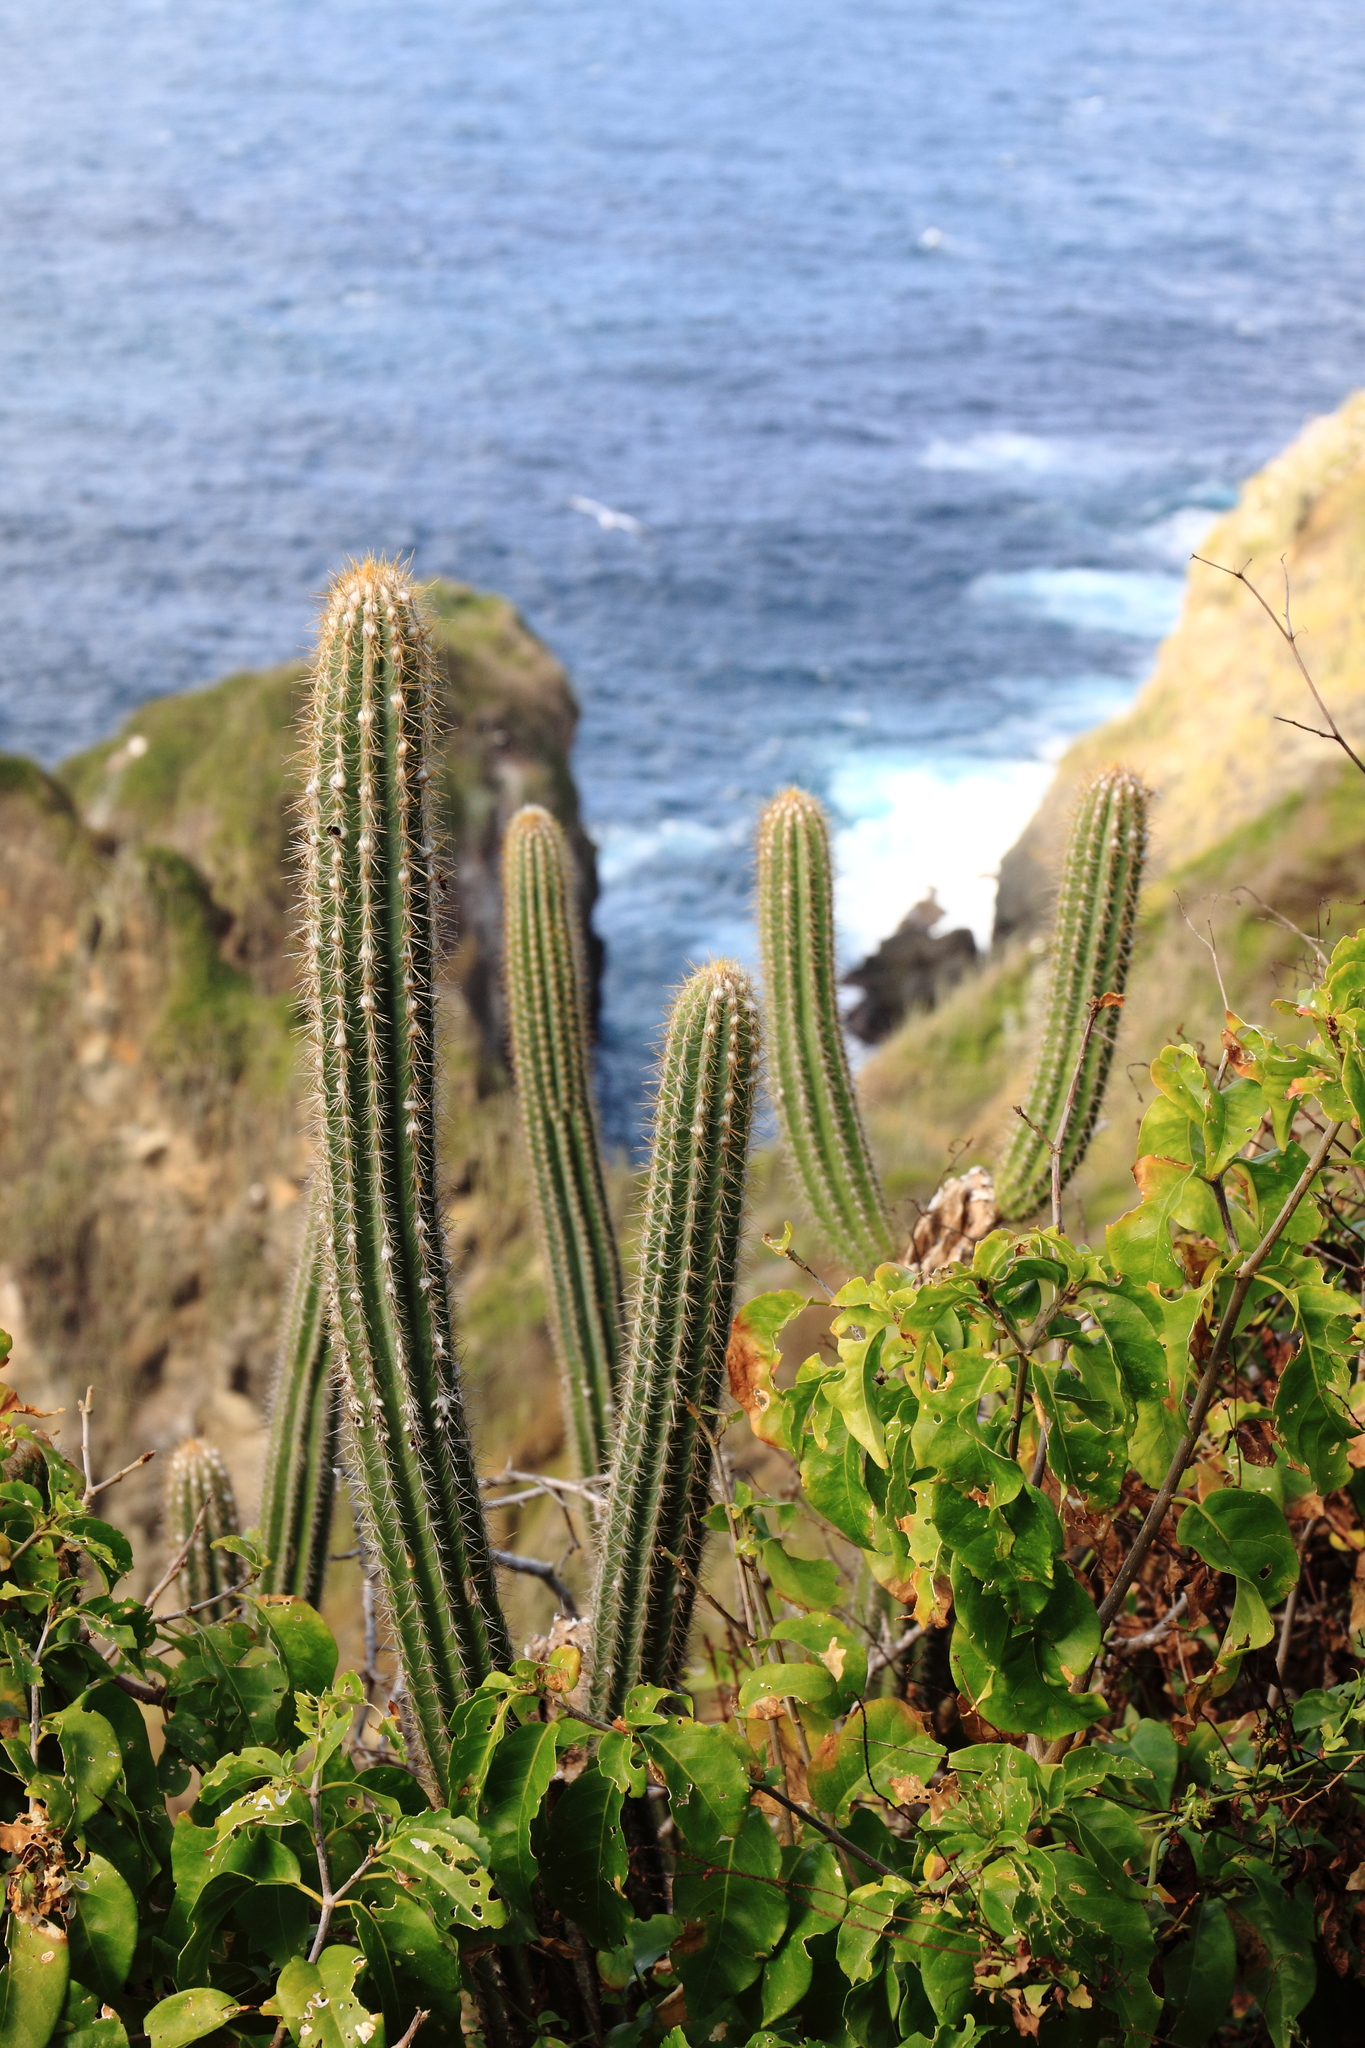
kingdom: Plantae
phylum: Tracheophyta
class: Magnoliopsida
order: Caryophyllales
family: Cactaceae
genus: Pilosocereus
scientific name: Pilosocereus lanuginosus
